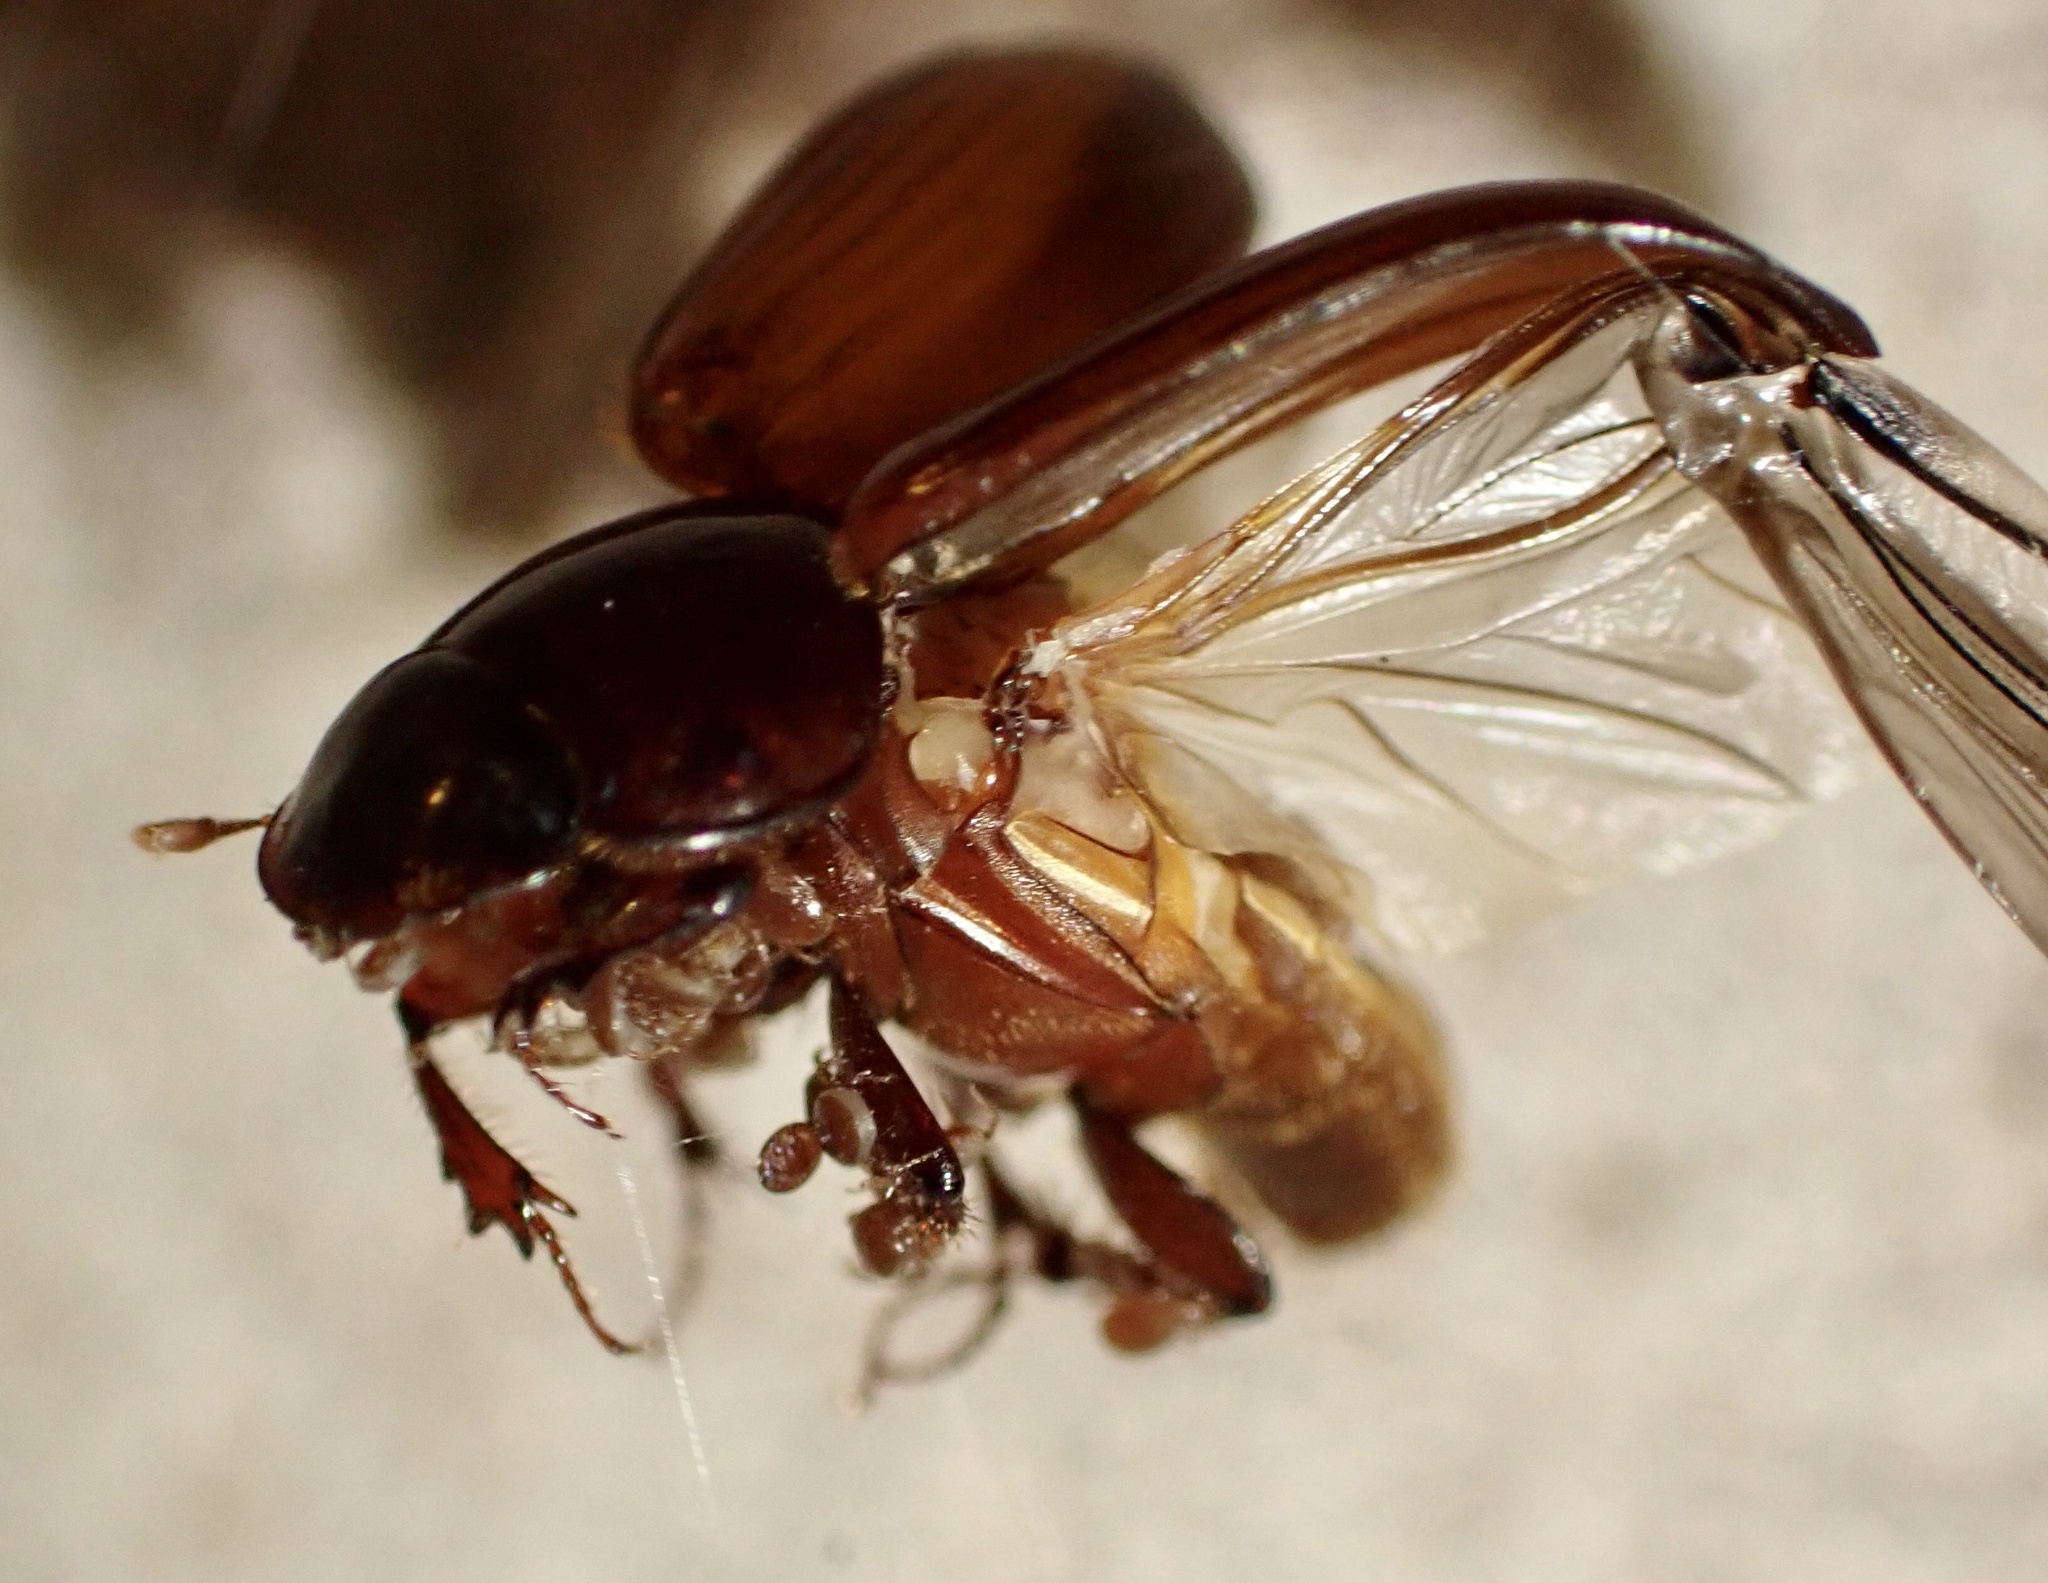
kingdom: Animalia
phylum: Arthropoda
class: Insecta
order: Coleoptera
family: Scarabaeidae
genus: Acrossus
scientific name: Acrossus rufipes
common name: Night-flying dung beetle
